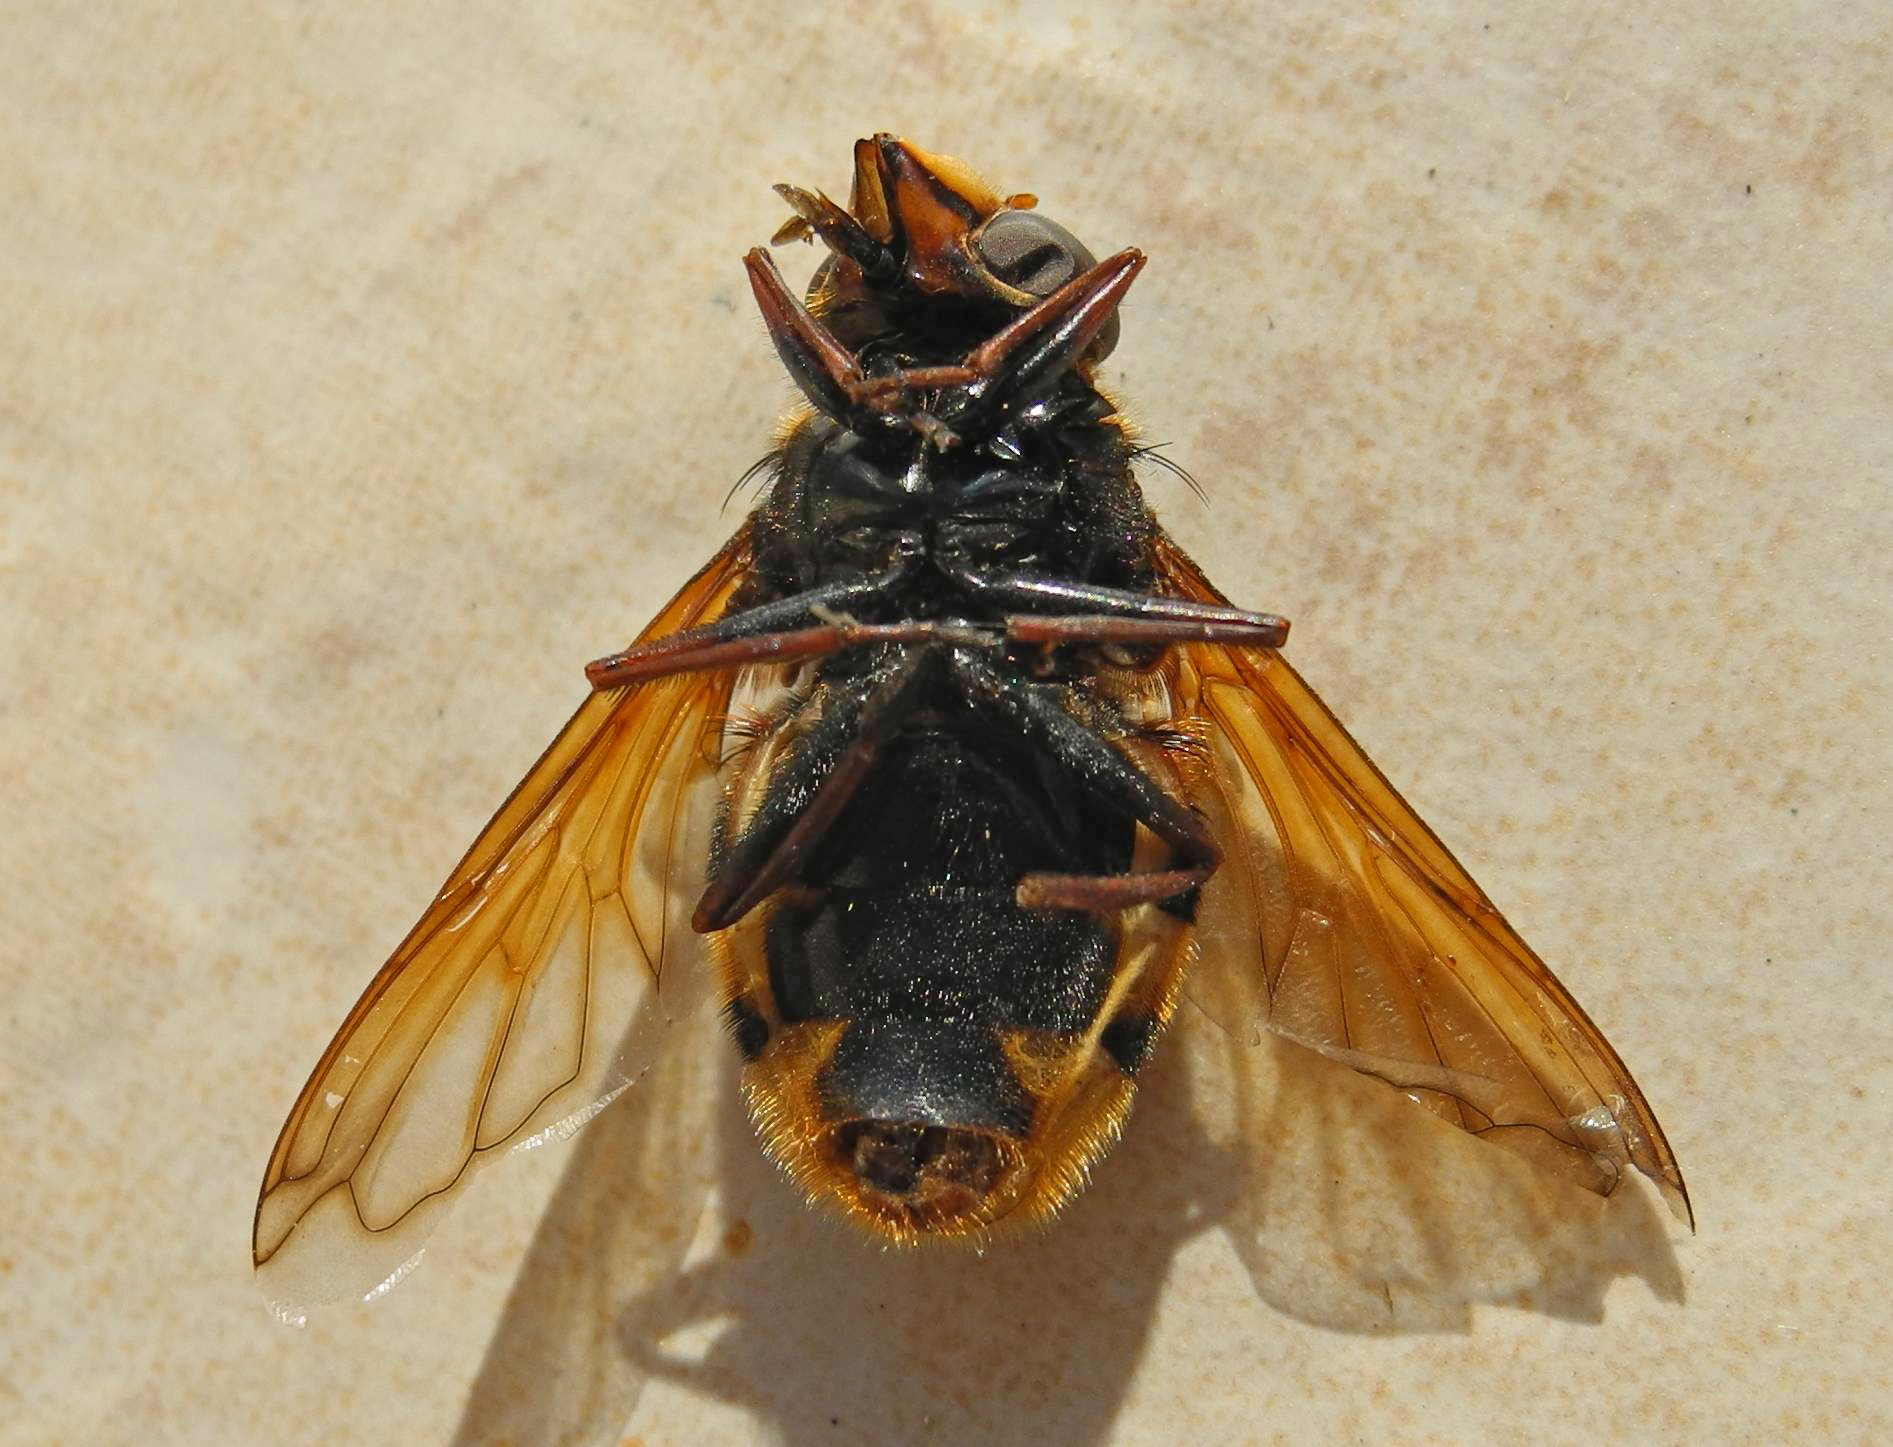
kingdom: Animalia
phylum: Arthropoda
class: Insecta
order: Diptera
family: Syrphidae
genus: Volucella
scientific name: Volucella zonaria
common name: Hornet hoverfly
